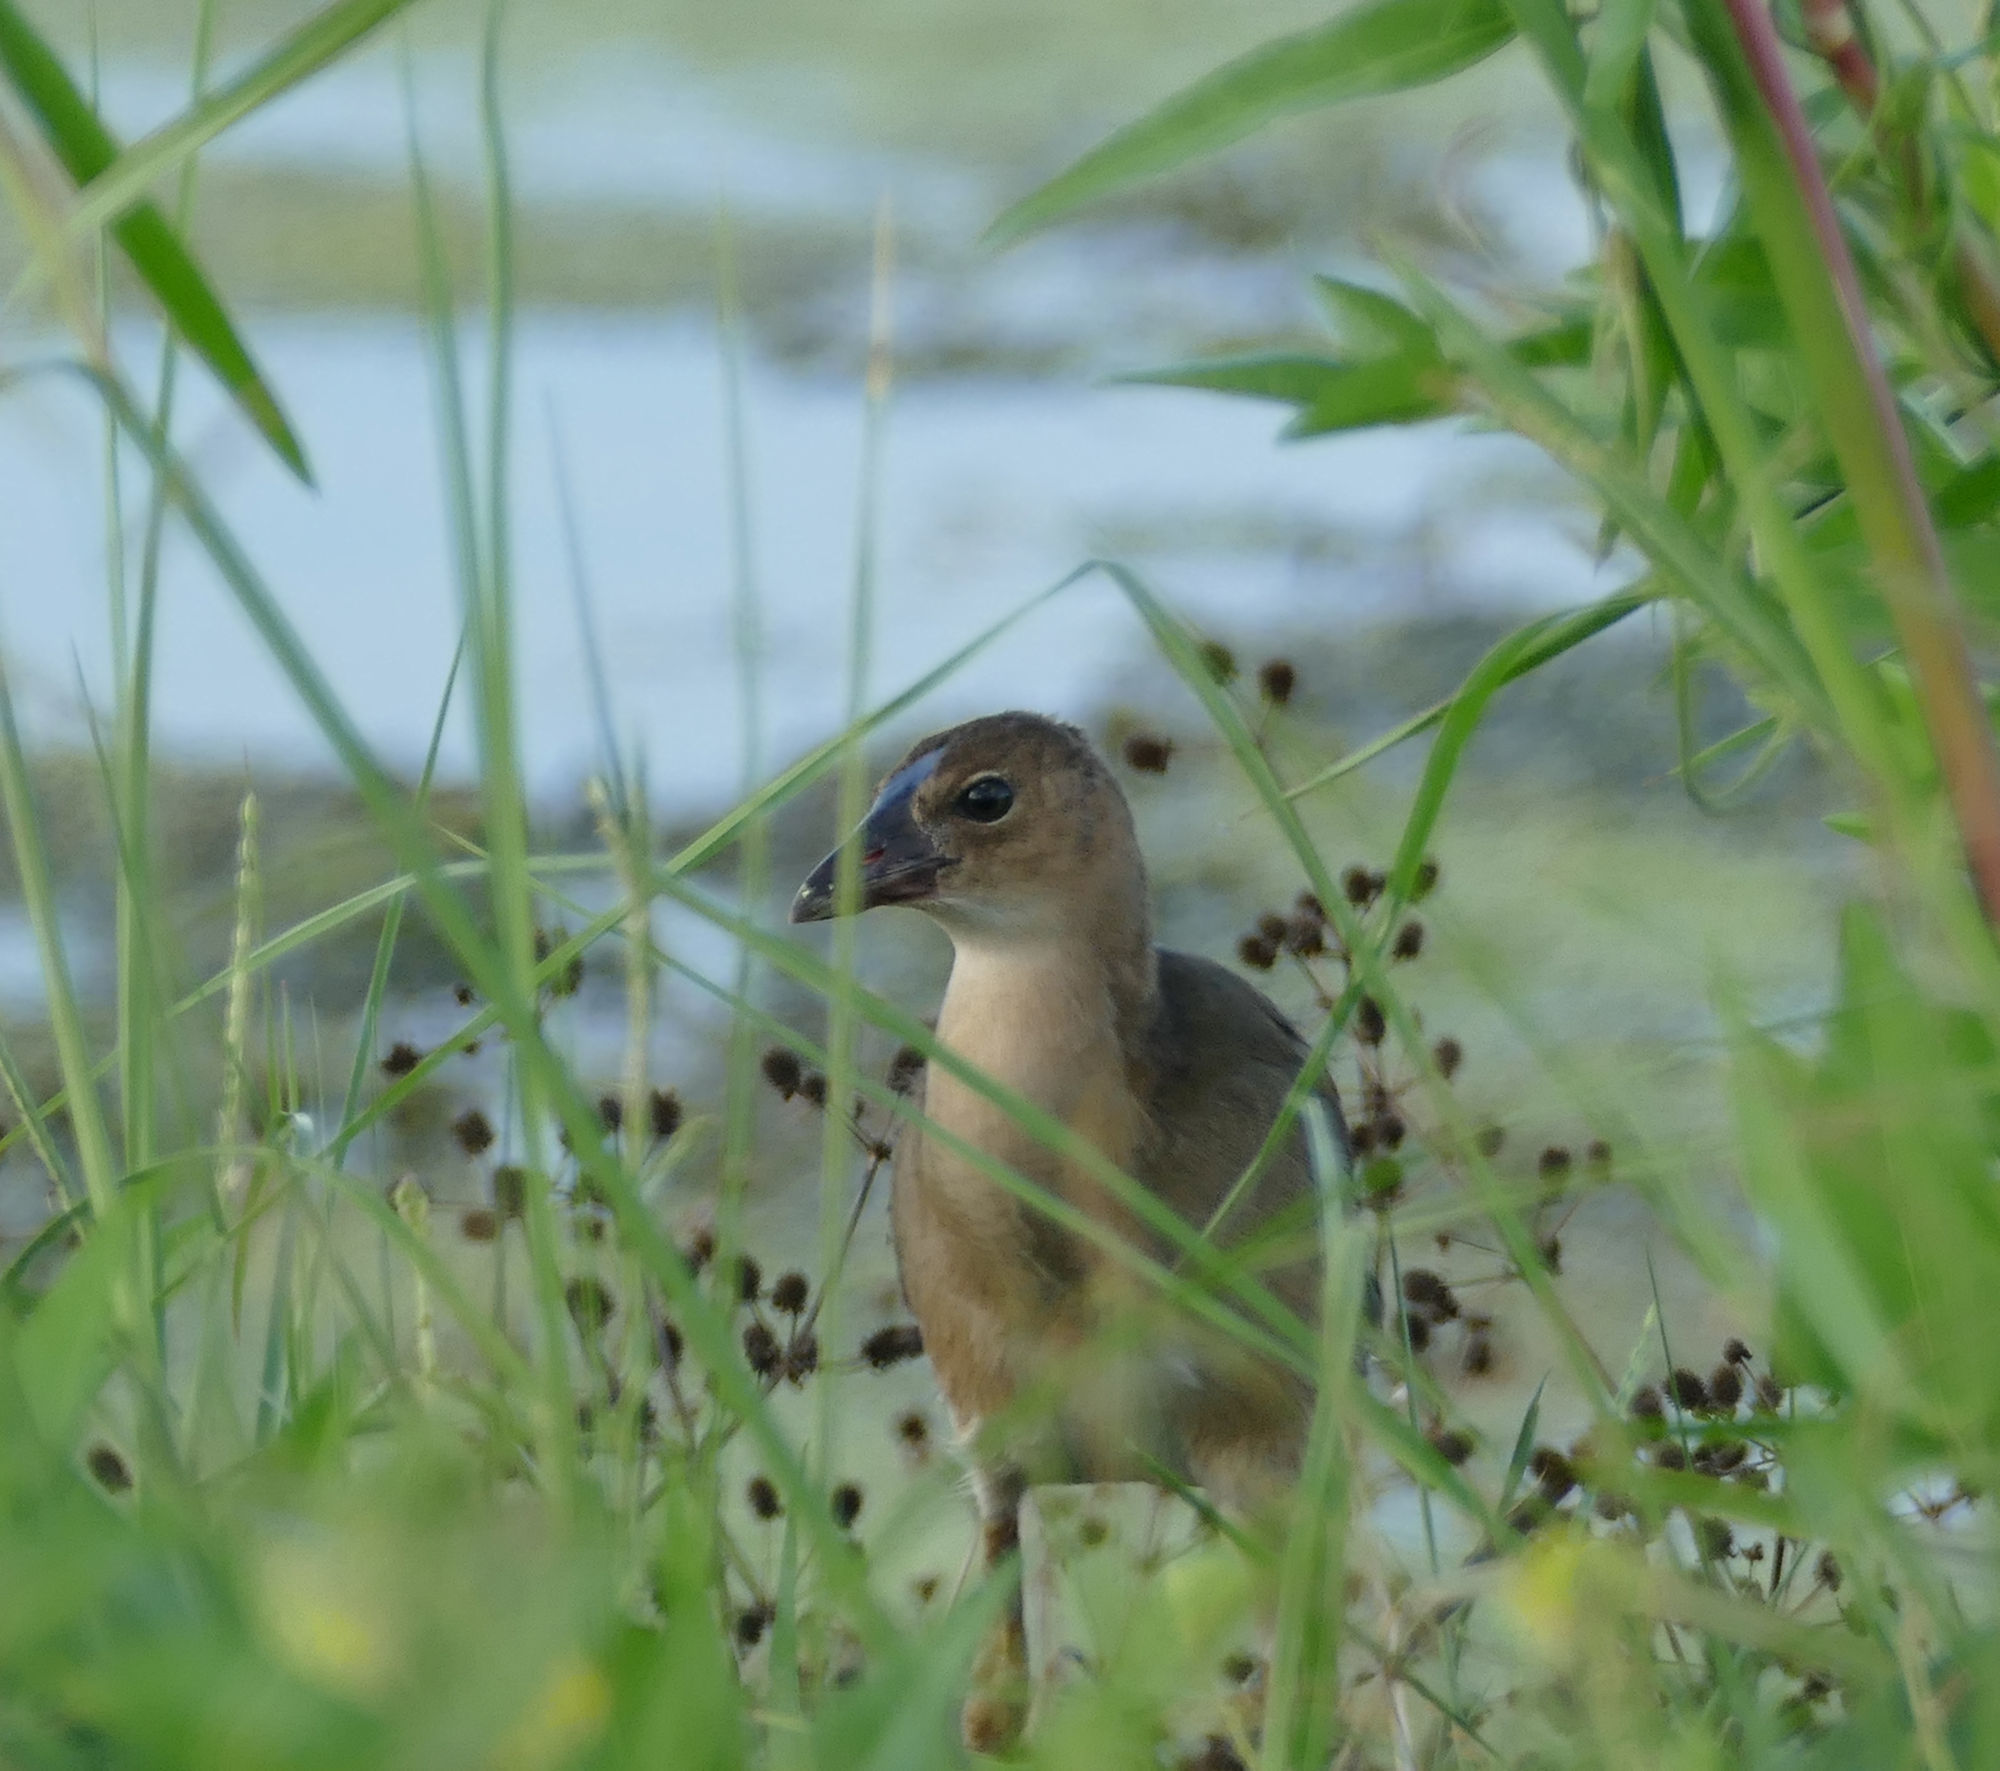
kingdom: Animalia
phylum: Chordata
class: Aves
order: Gruiformes
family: Rallidae
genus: Porphyrio
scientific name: Porphyrio martinica
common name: Purple gallinule
